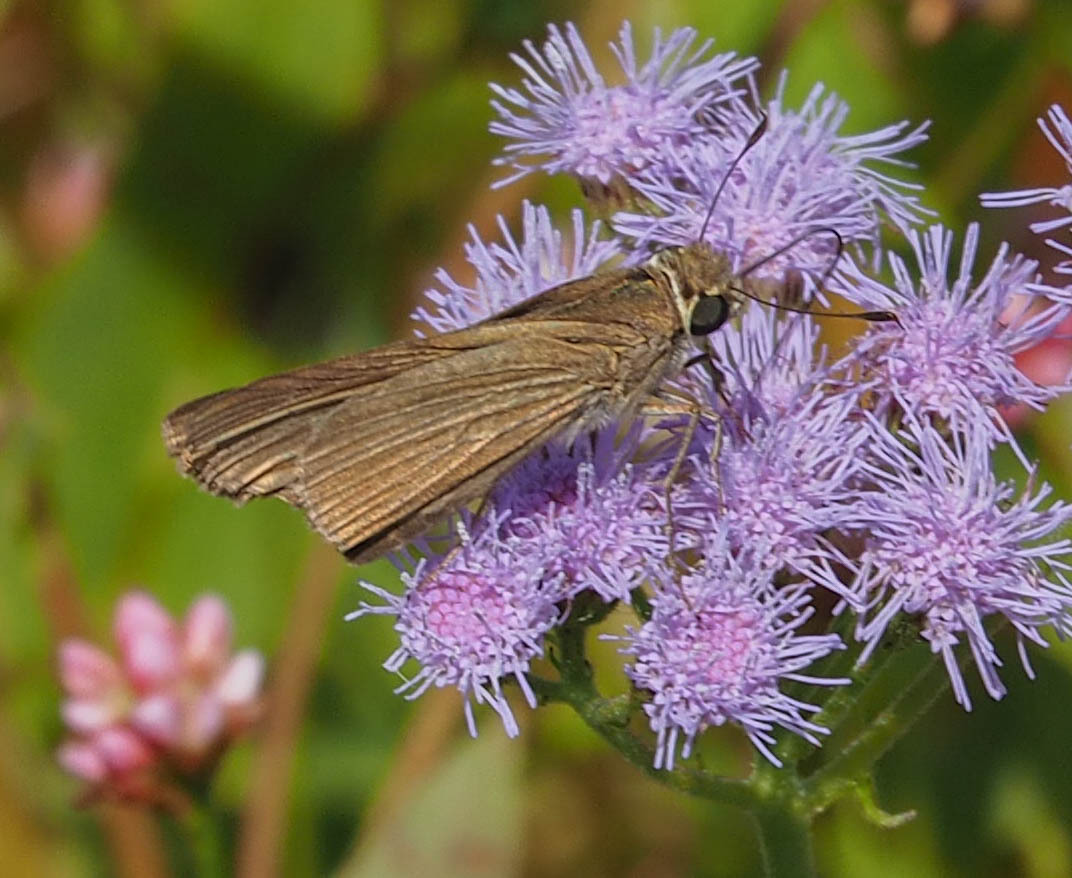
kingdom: Animalia
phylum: Arthropoda
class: Insecta
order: Lepidoptera
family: Hesperiidae
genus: Panoquina
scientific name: Panoquina ocola
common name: Ocola skipper
